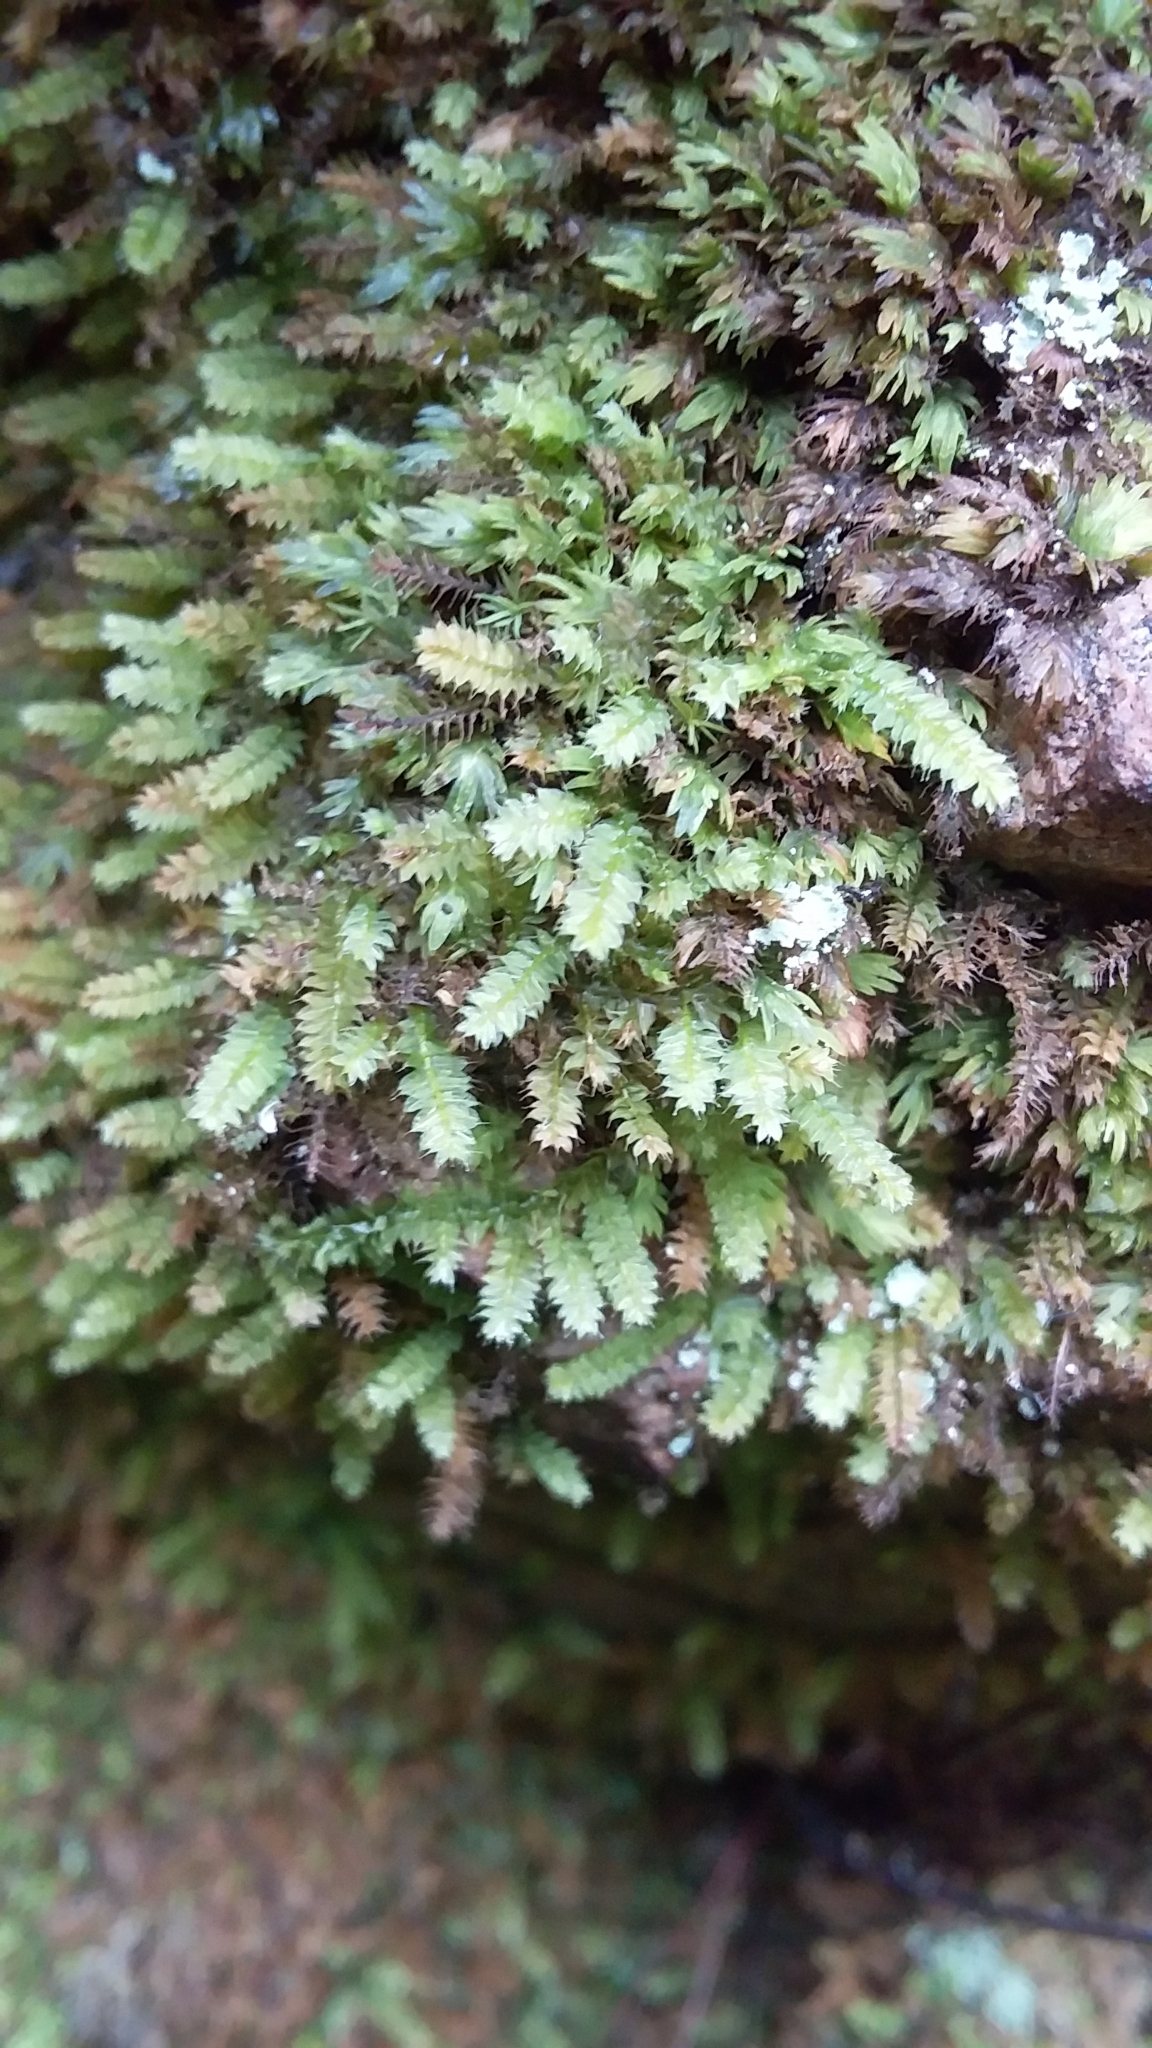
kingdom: Plantae
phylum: Bryophyta
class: Bryopsida
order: Hypnodendrales
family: Racopilaceae
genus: Racopilum
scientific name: Racopilum cuspidigerum
